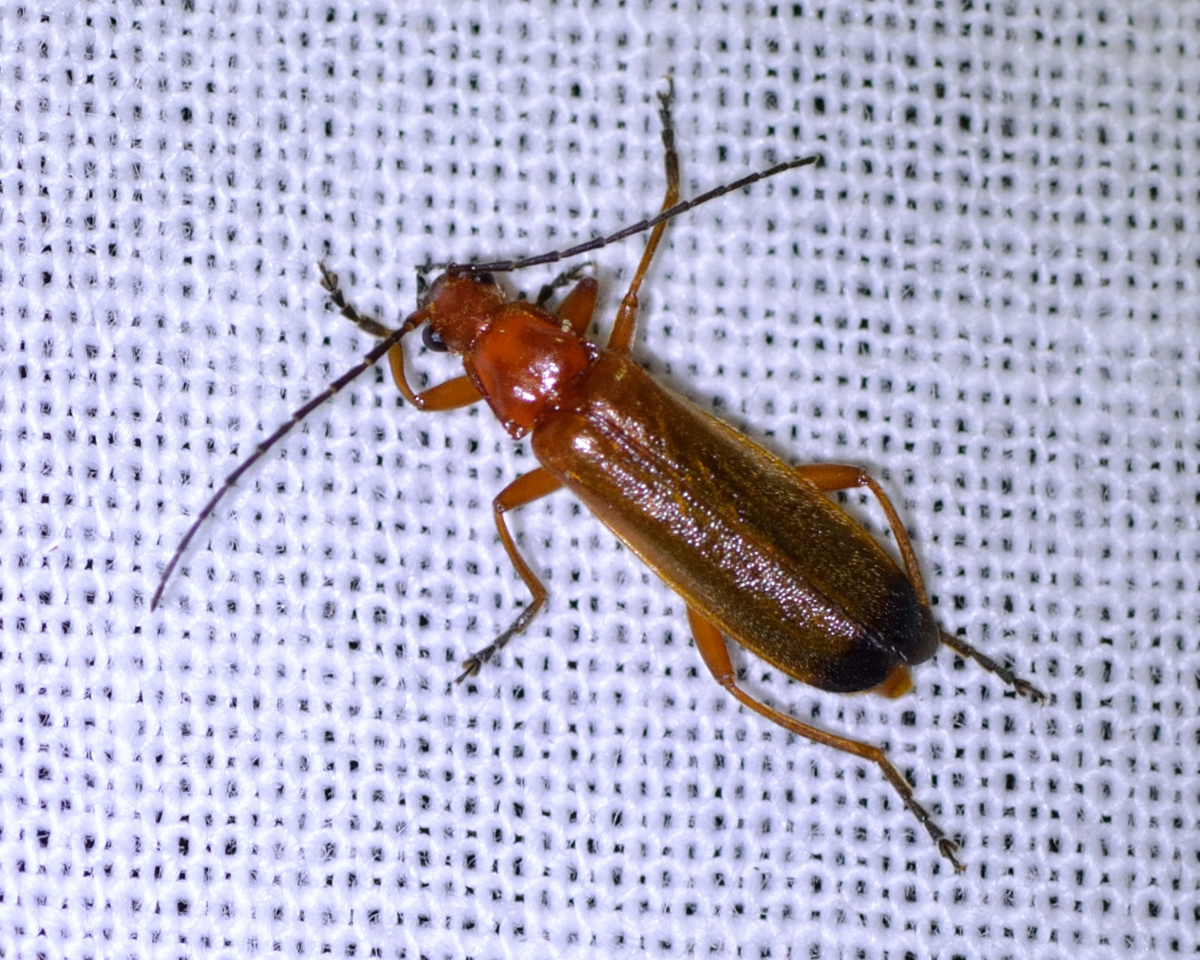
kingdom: Animalia
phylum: Arthropoda
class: Insecta
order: Coleoptera
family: Cantharidae
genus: Rhagonycha
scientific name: Rhagonycha fulva
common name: Common red soldier beetle
